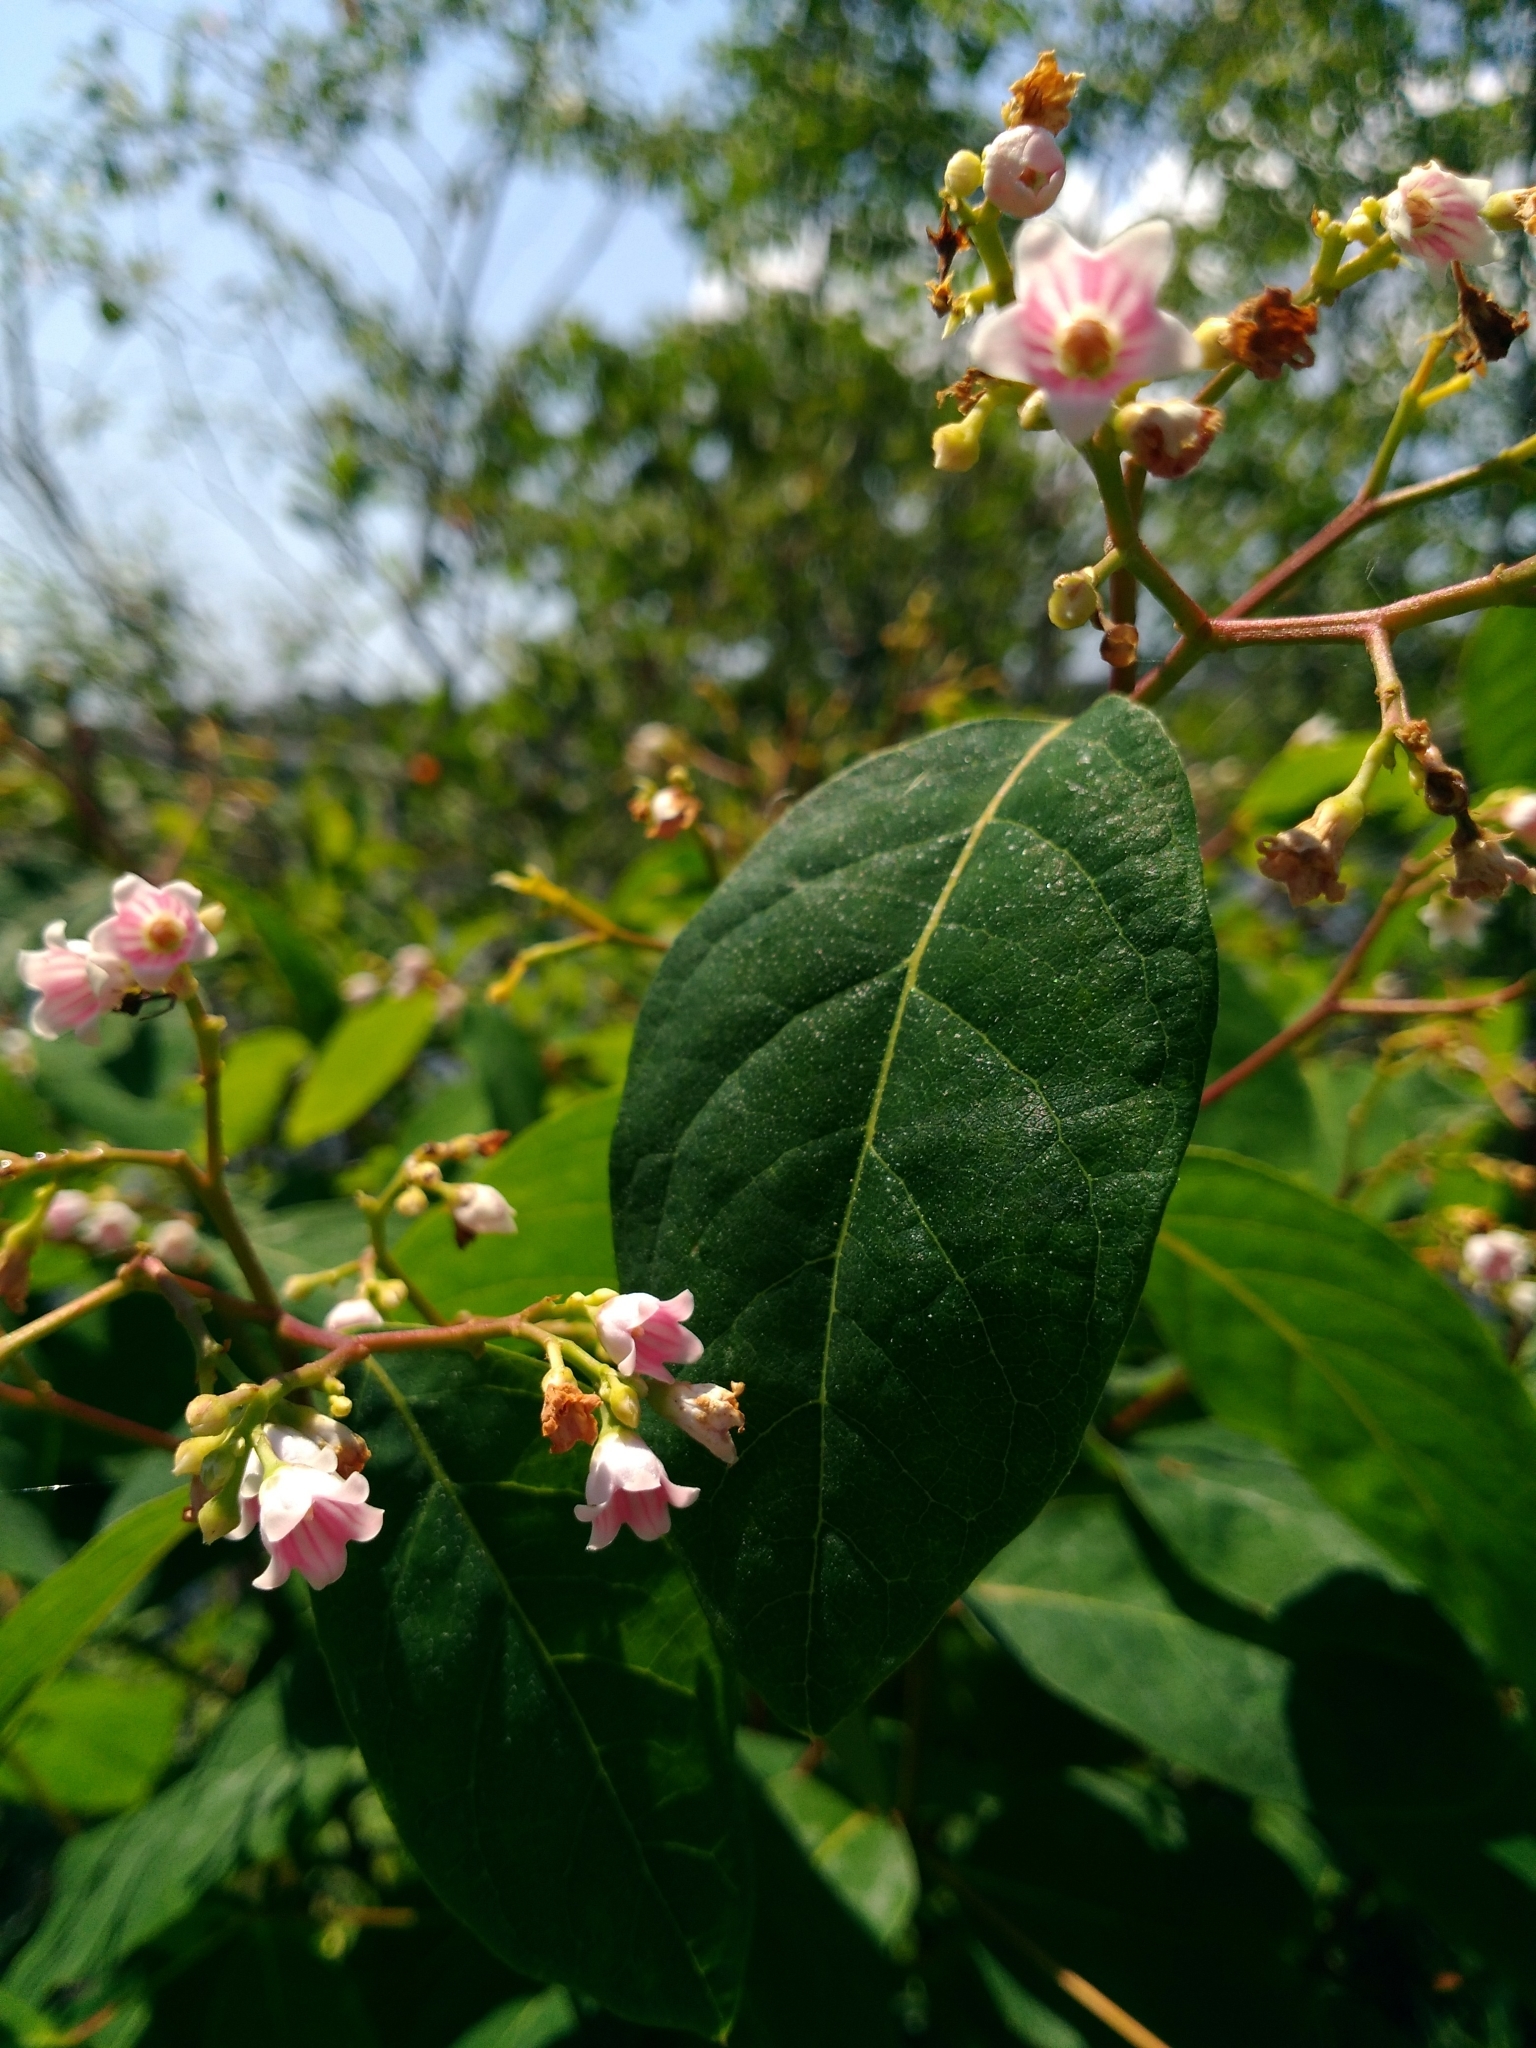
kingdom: Plantae
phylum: Tracheophyta
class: Magnoliopsida
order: Gentianales
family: Apocynaceae
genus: Apocynum
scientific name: Apocynum androsaemifolium
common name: Spreading dogbane
